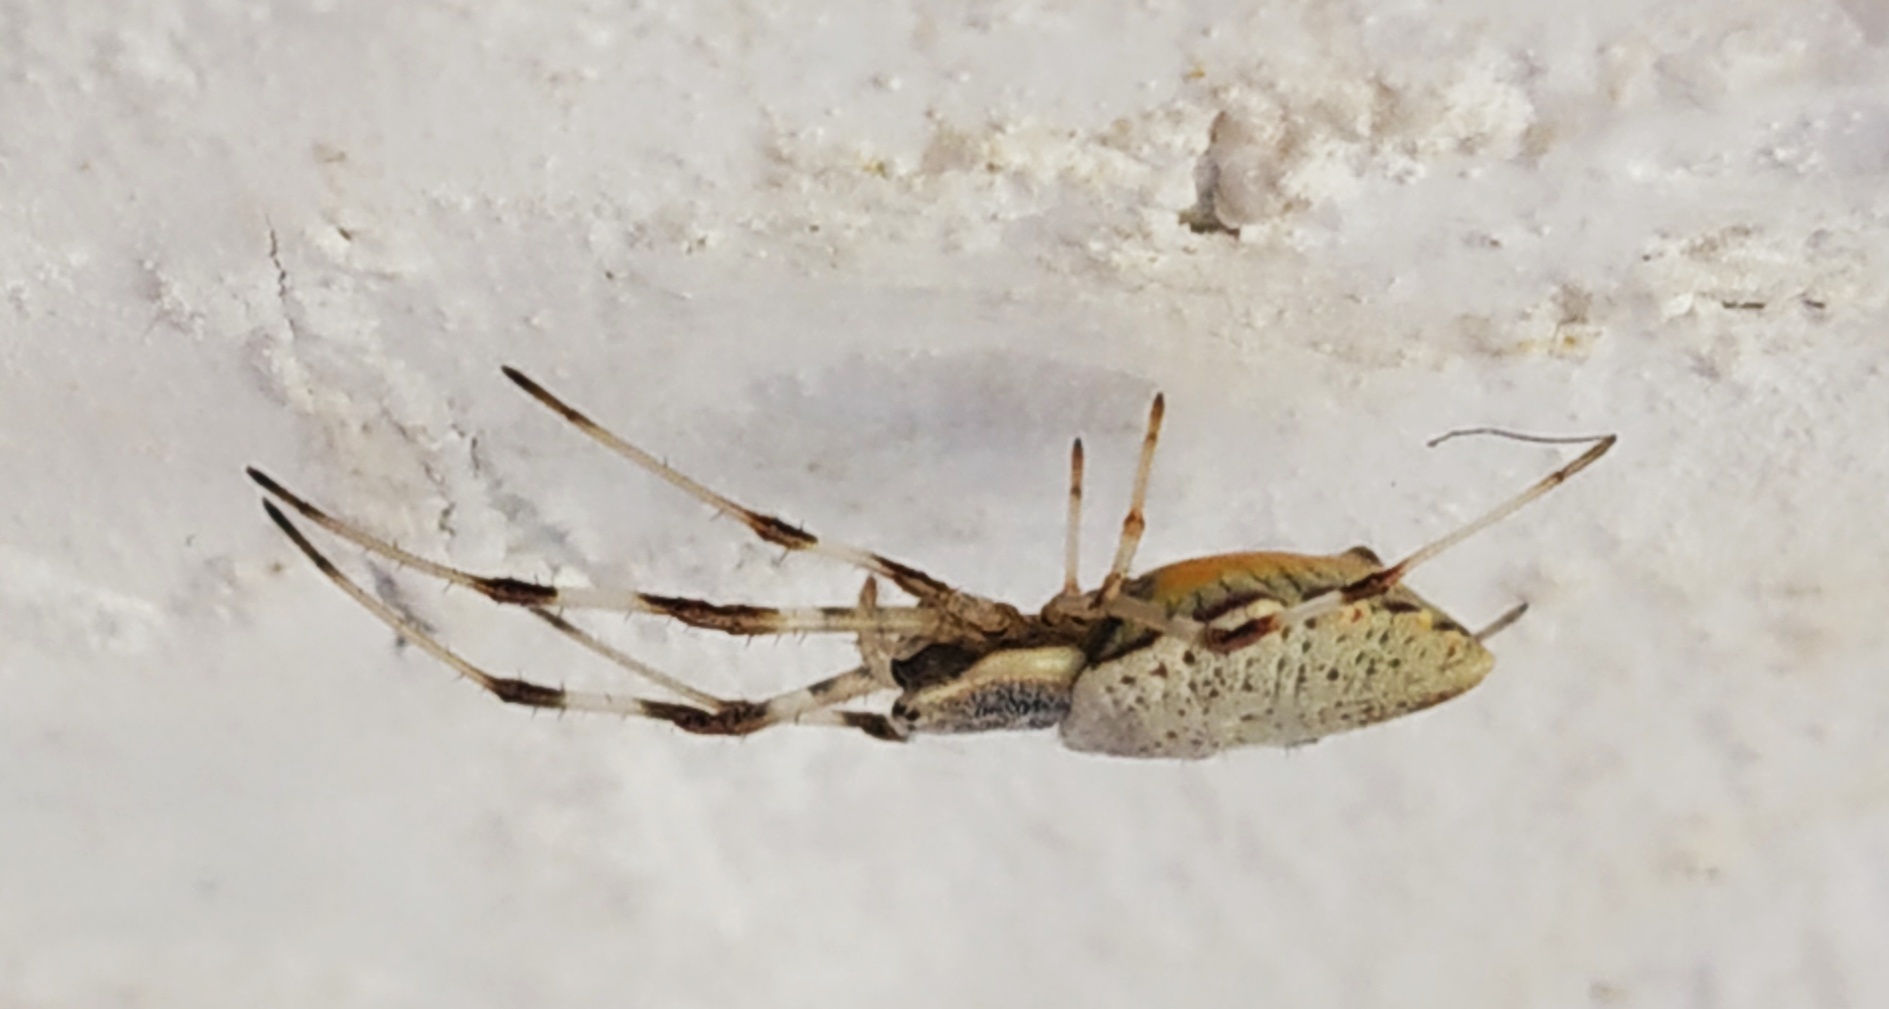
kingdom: Animalia
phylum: Arthropoda
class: Arachnida
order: Araneae
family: Araneidae
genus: Herennia
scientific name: Herennia multipuncta
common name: Spotted coin spider
